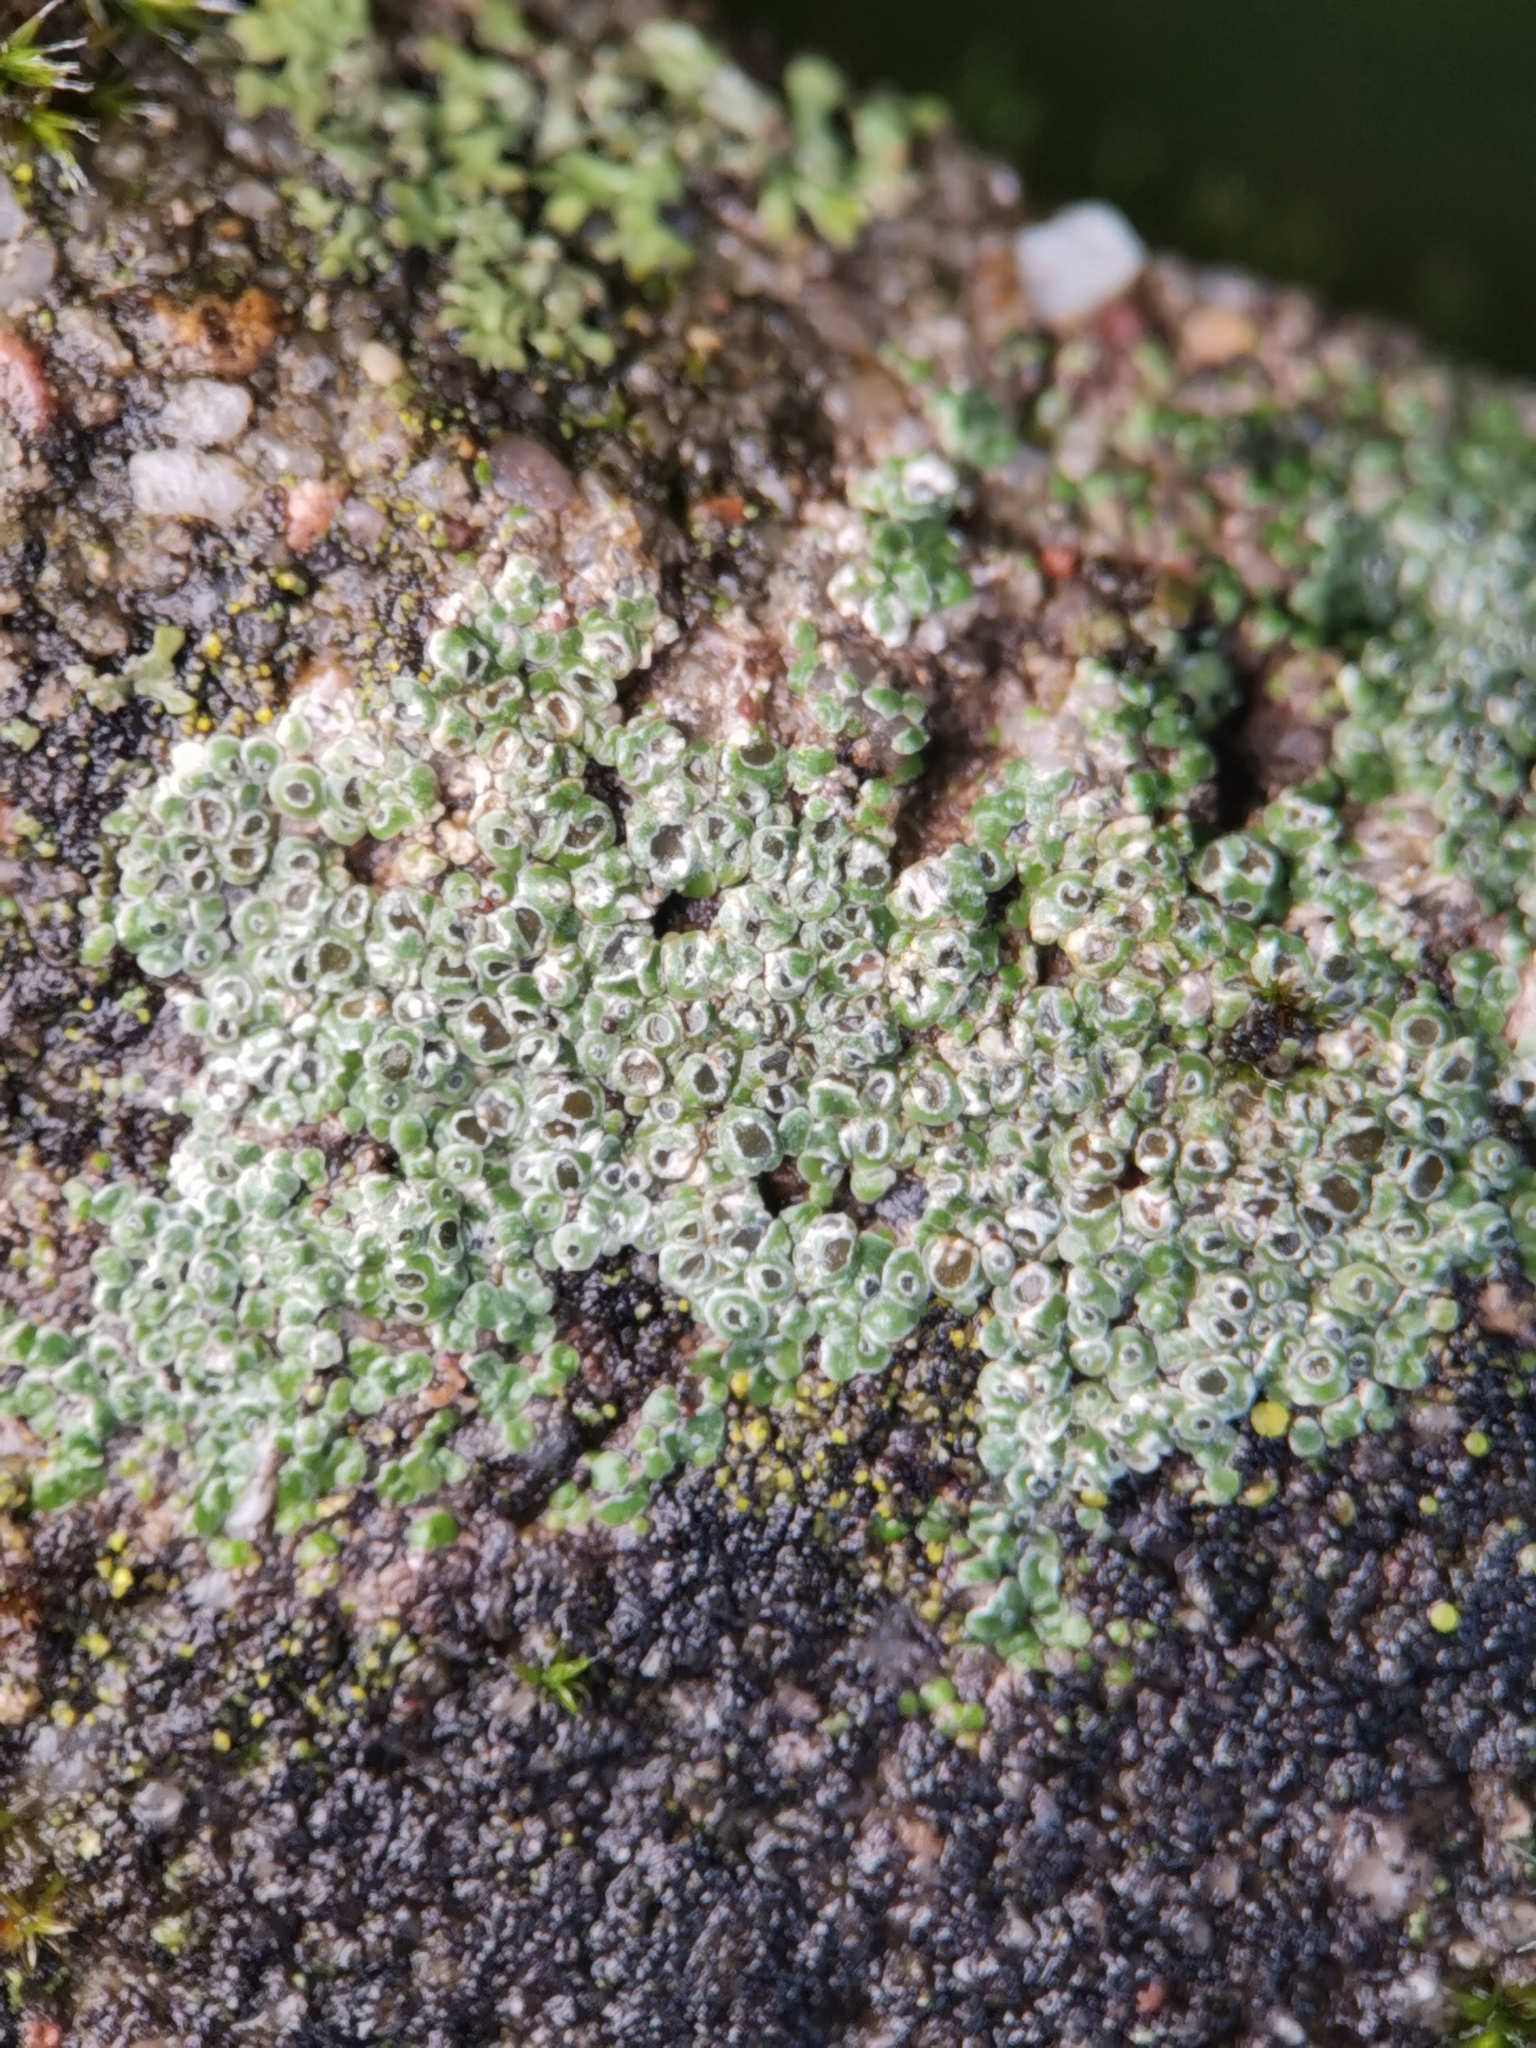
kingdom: Fungi
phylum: Ascomycota
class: Lecanoromycetes
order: Pertusariales
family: Megasporaceae
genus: Circinaria
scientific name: Circinaria contorta
